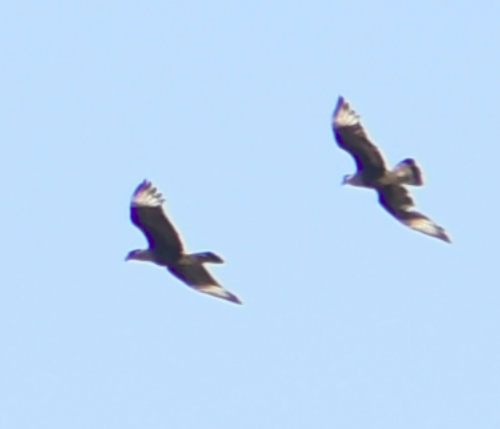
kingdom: Animalia
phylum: Chordata
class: Aves
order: Falconiformes
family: Falconidae
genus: Caracara
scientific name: Caracara plancus
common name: Southern caracara
